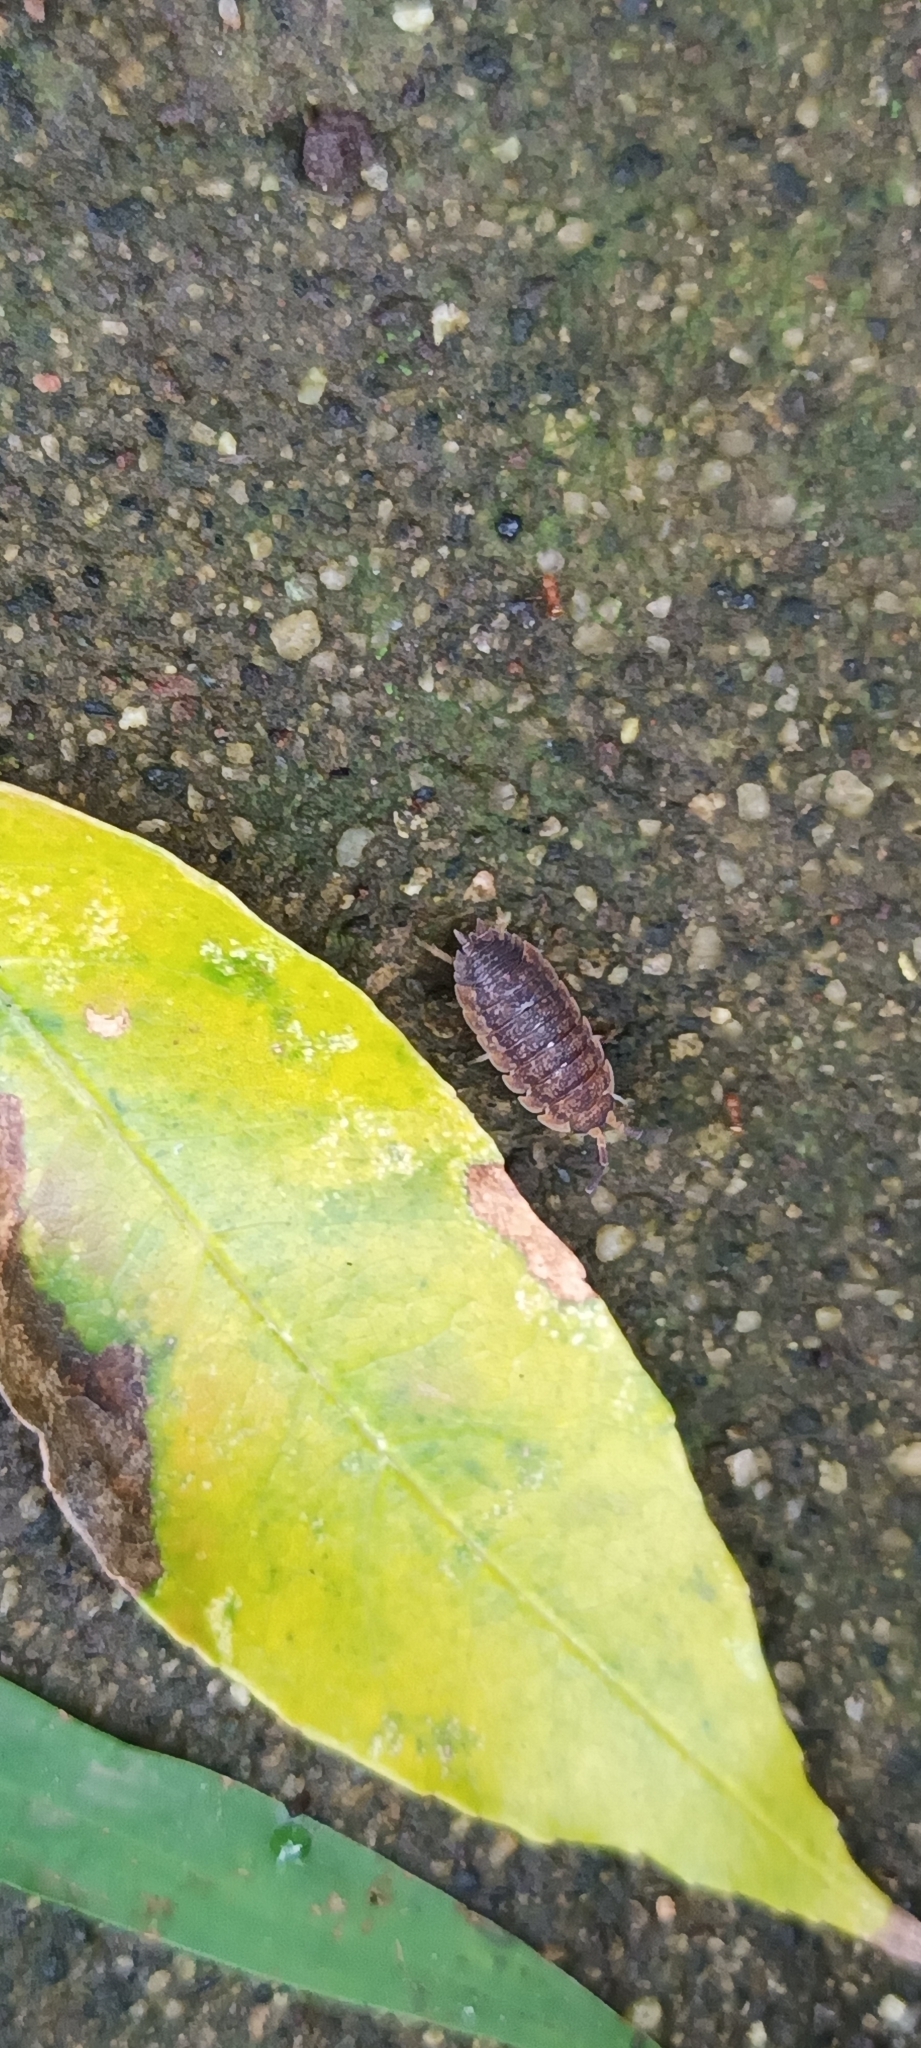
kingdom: Animalia
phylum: Arthropoda
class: Malacostraca
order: Isopoda
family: Porcellionidae
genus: Porcellio
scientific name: Porcellio scaber
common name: Common rough woodlouse
